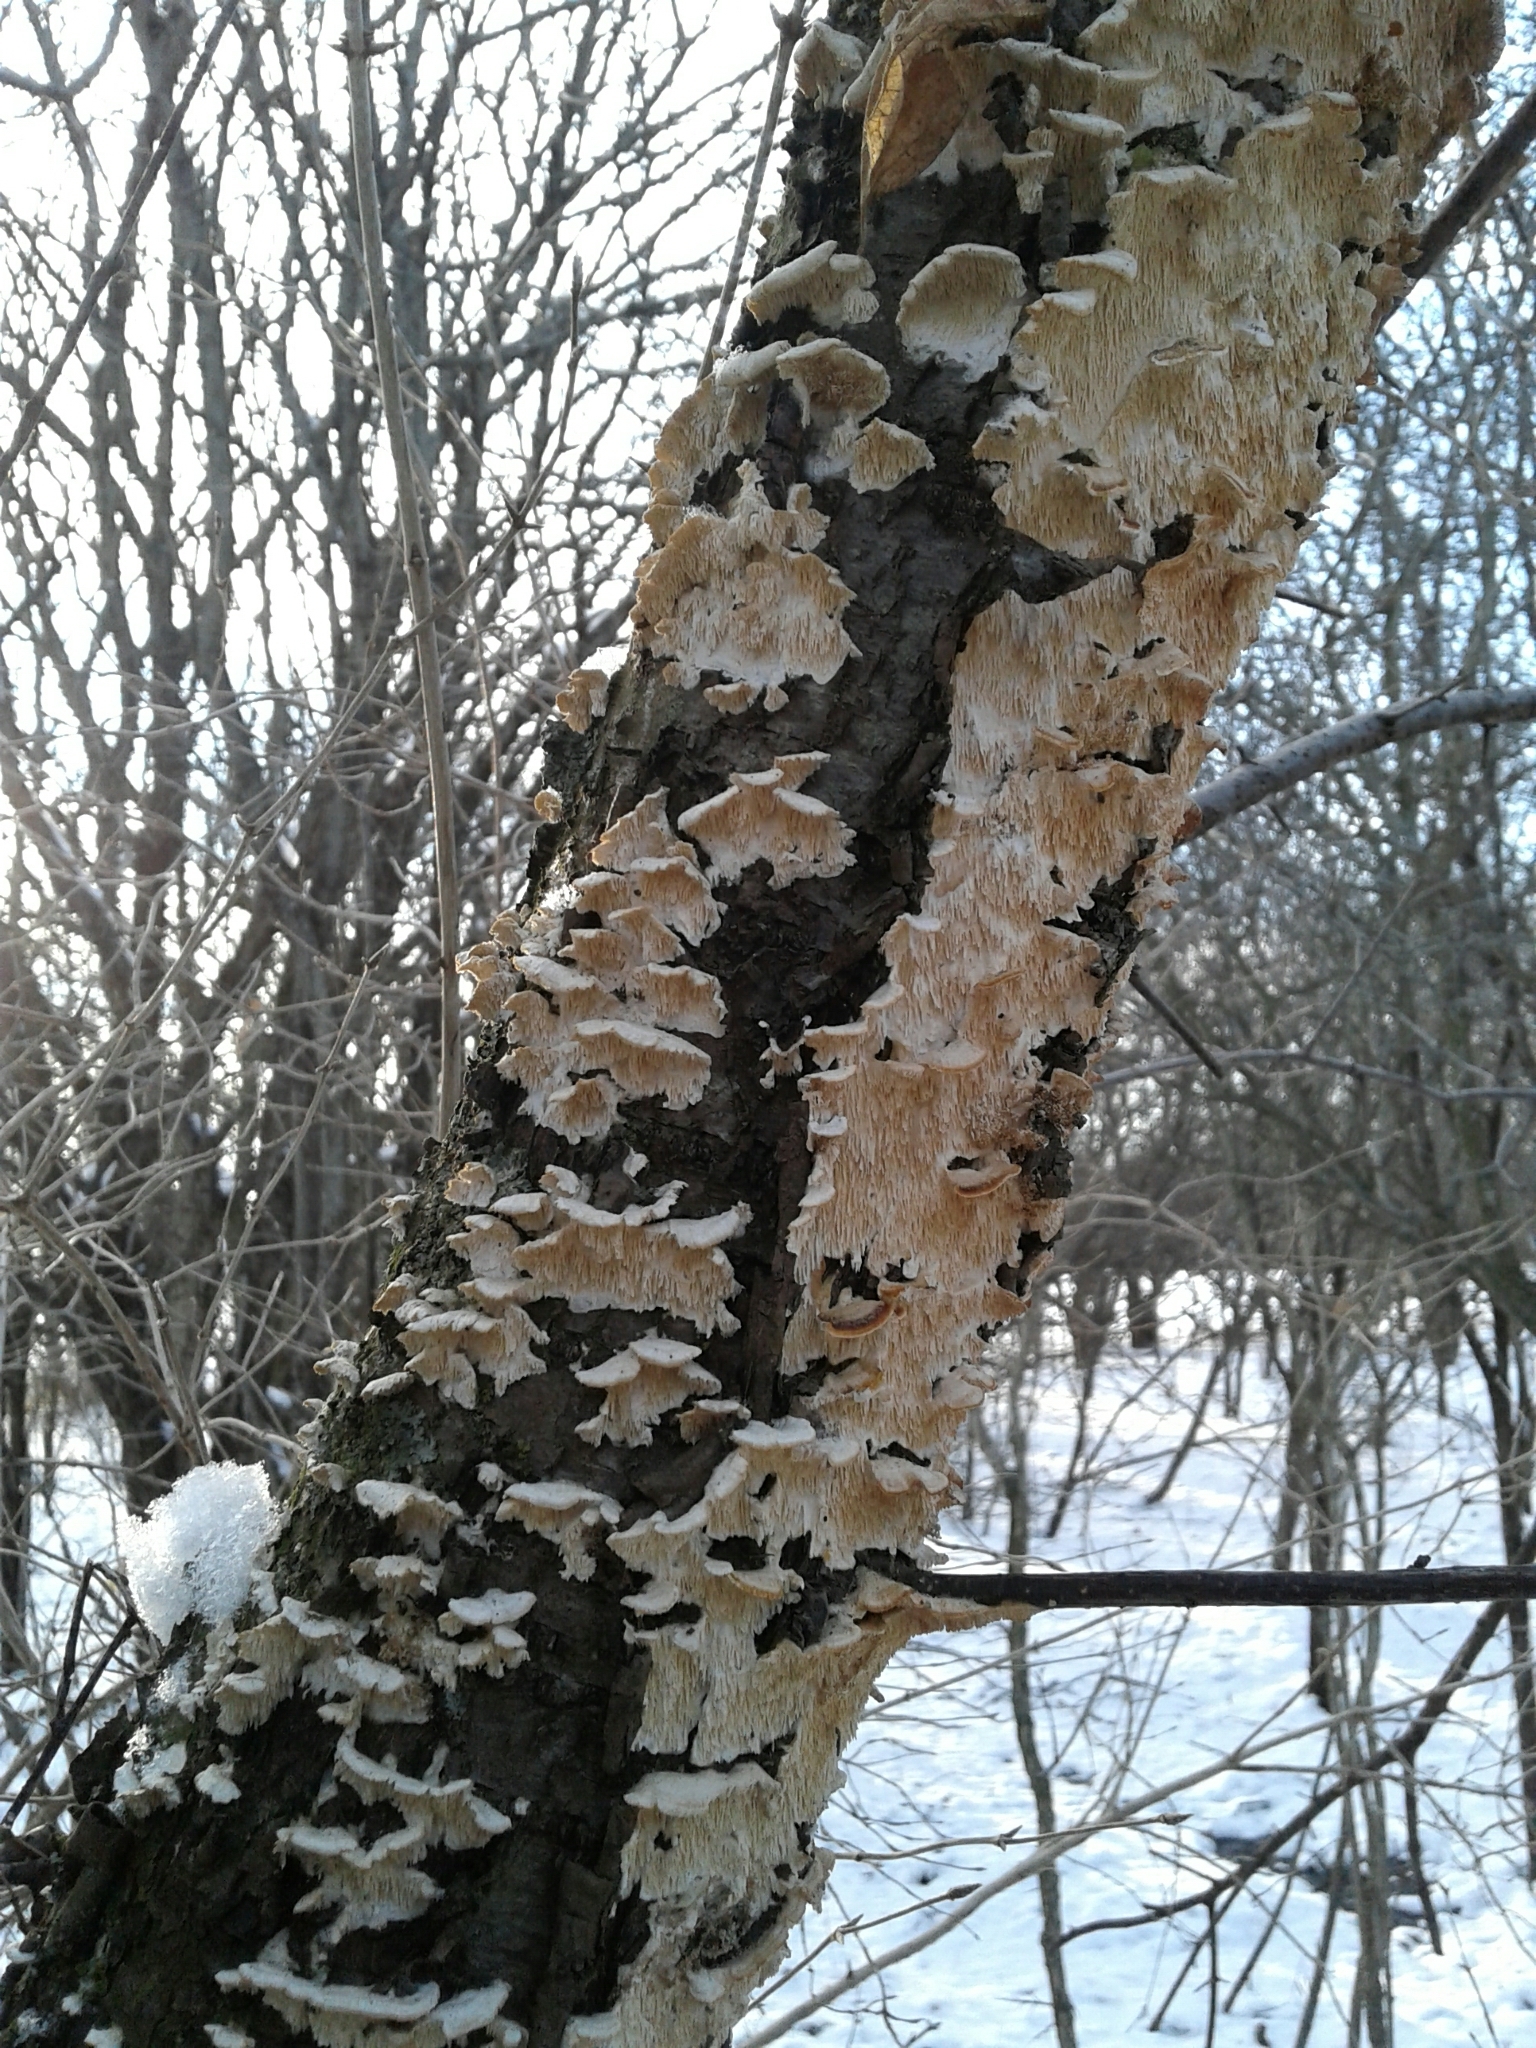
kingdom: Fungi
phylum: Basidiomycota
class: Agaricomycetes
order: Polyporales
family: Irpicaceae
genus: Irpex
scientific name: Irpex lacteus
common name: Milk-white toothed polypore
